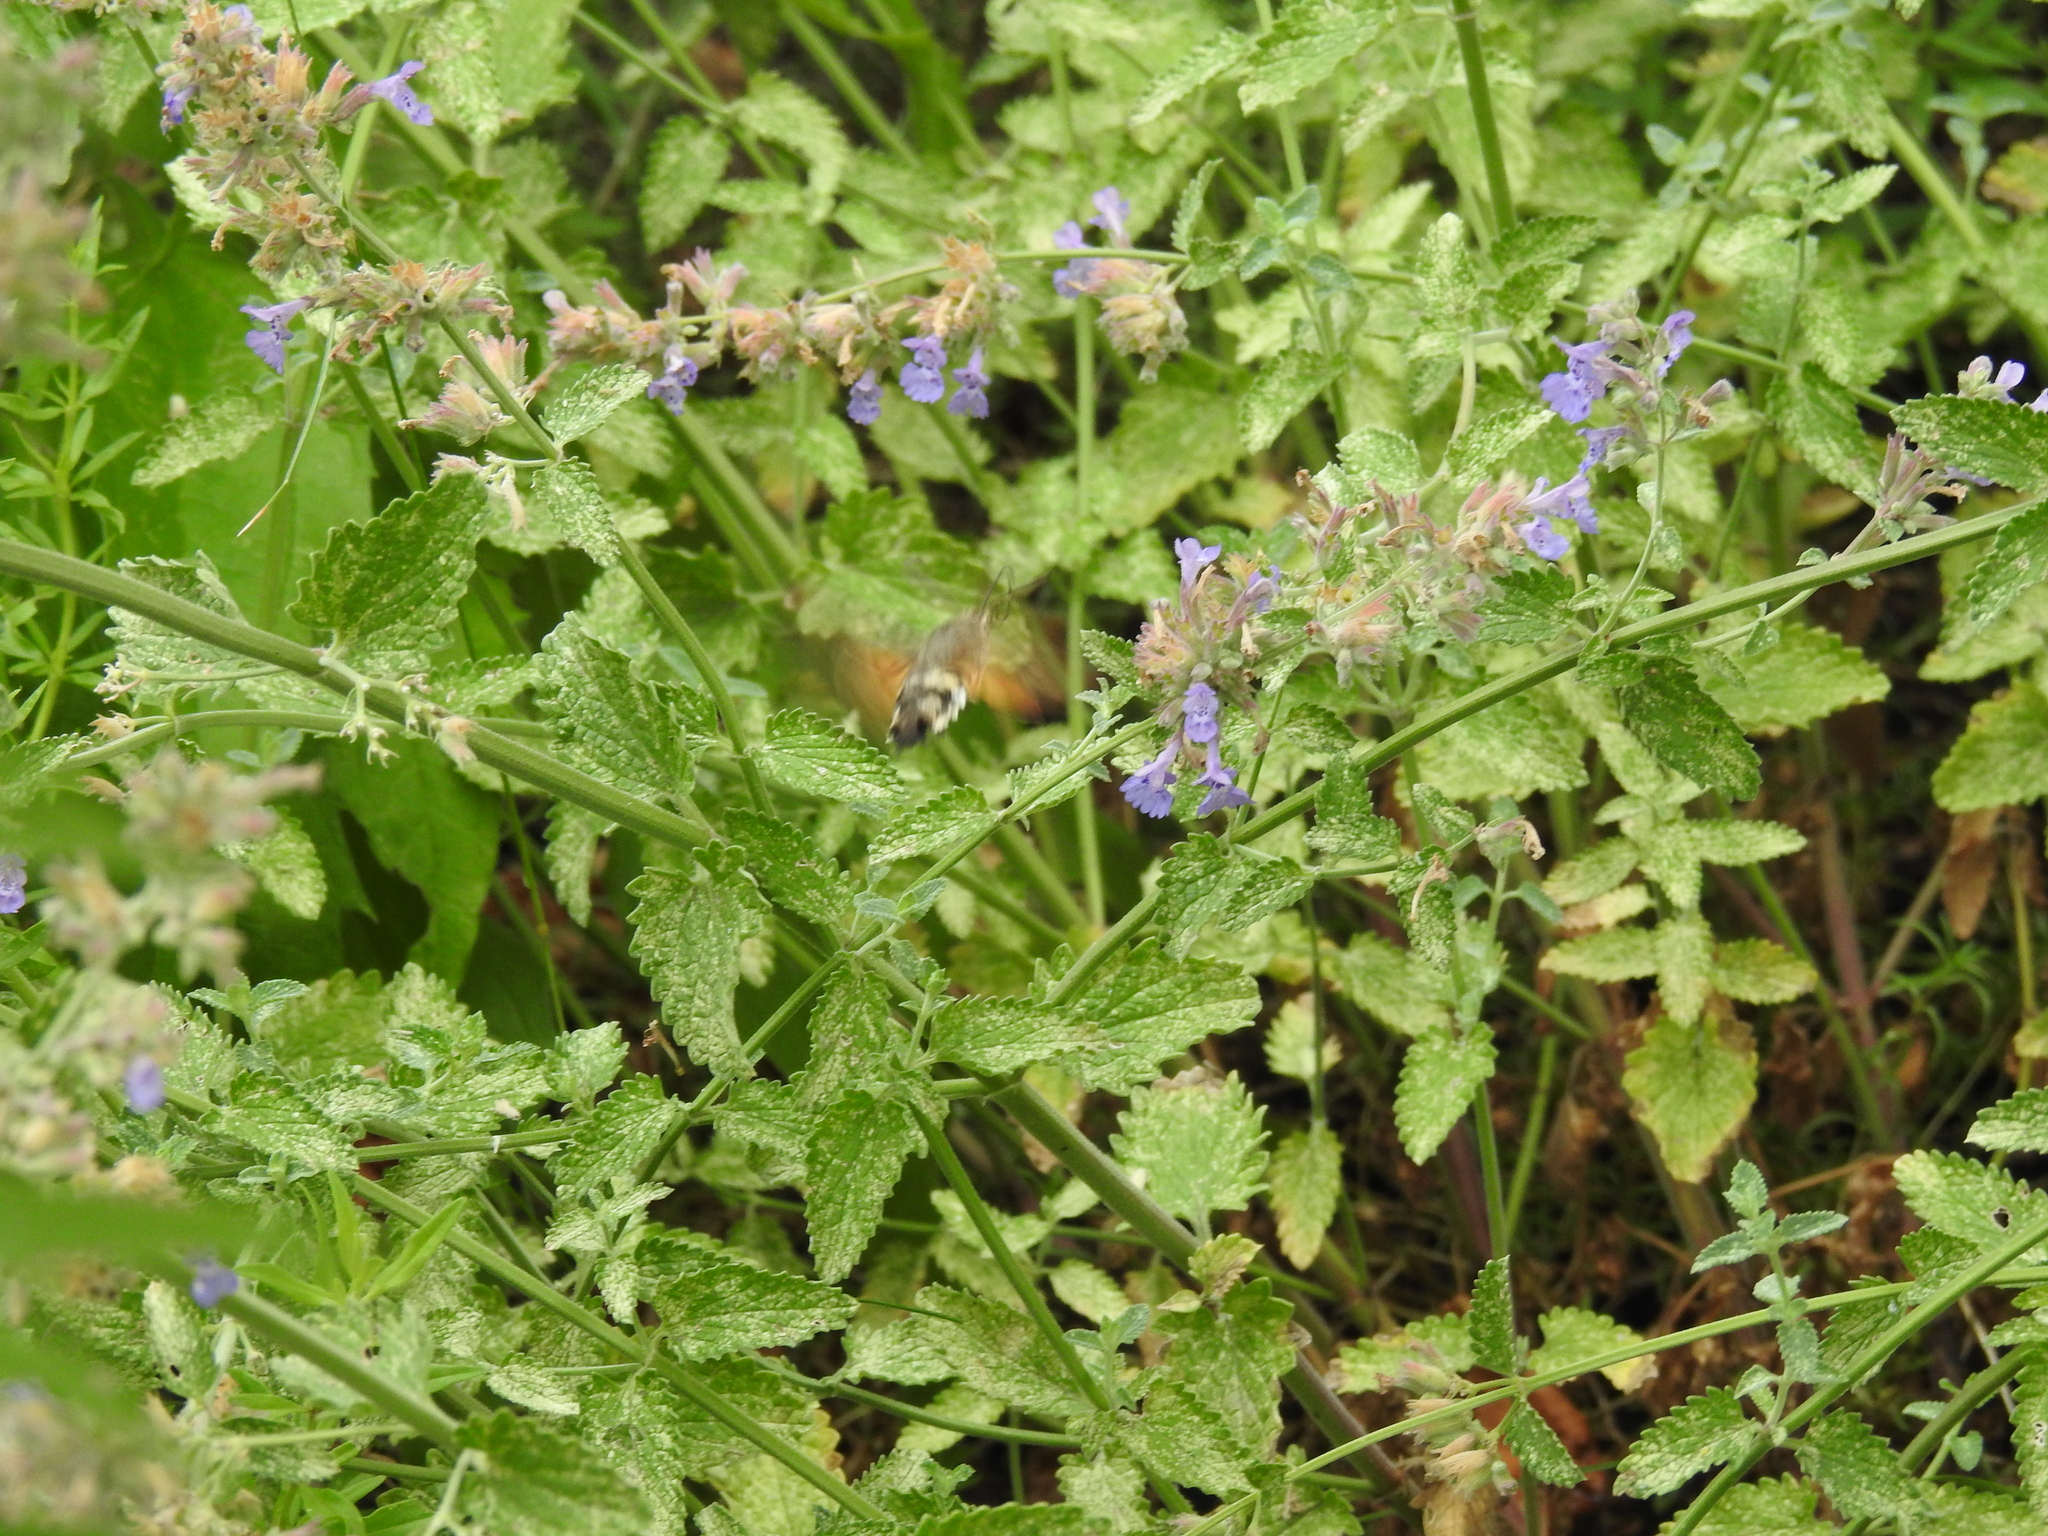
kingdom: Animalia
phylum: Arthropoda
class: Insecta
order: Lepidoptera
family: Sphingidae
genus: Macroglossum
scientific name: Macroglossum stellatarum
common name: Humming-bird hawk-moth
